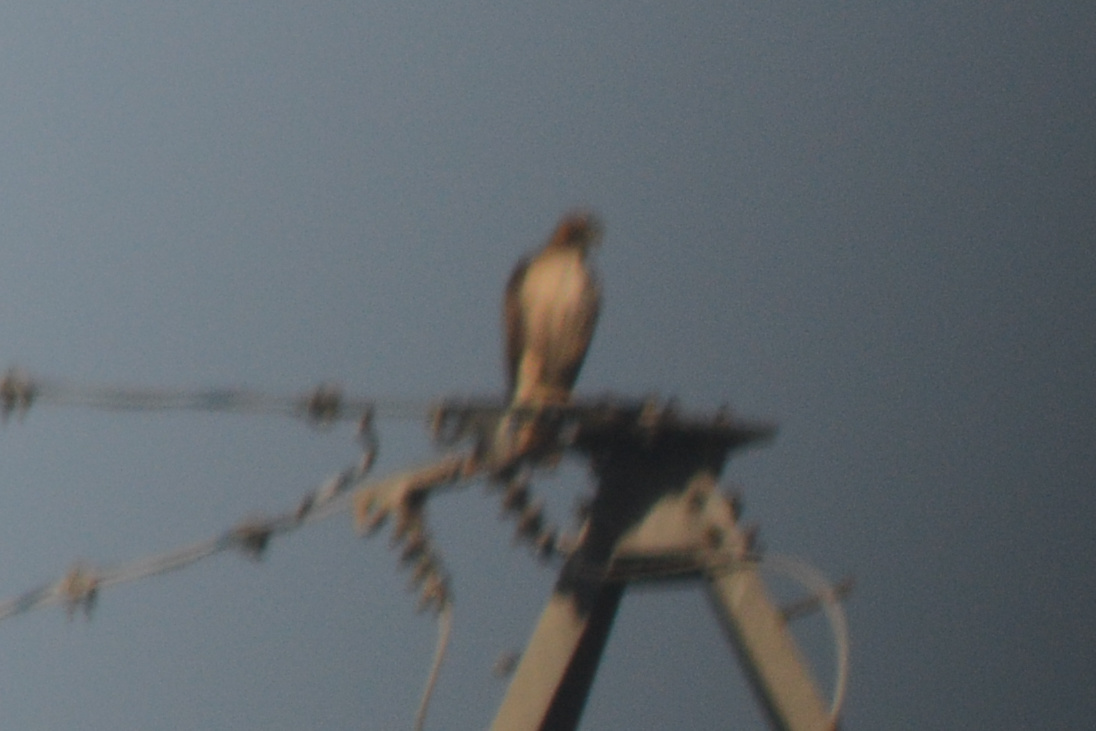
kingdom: Animalia
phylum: Chordata
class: Aves
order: Accipitriformes
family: Accipitridae
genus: Buteo
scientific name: Buteo jamaicensis
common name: Red-tailed hawk
